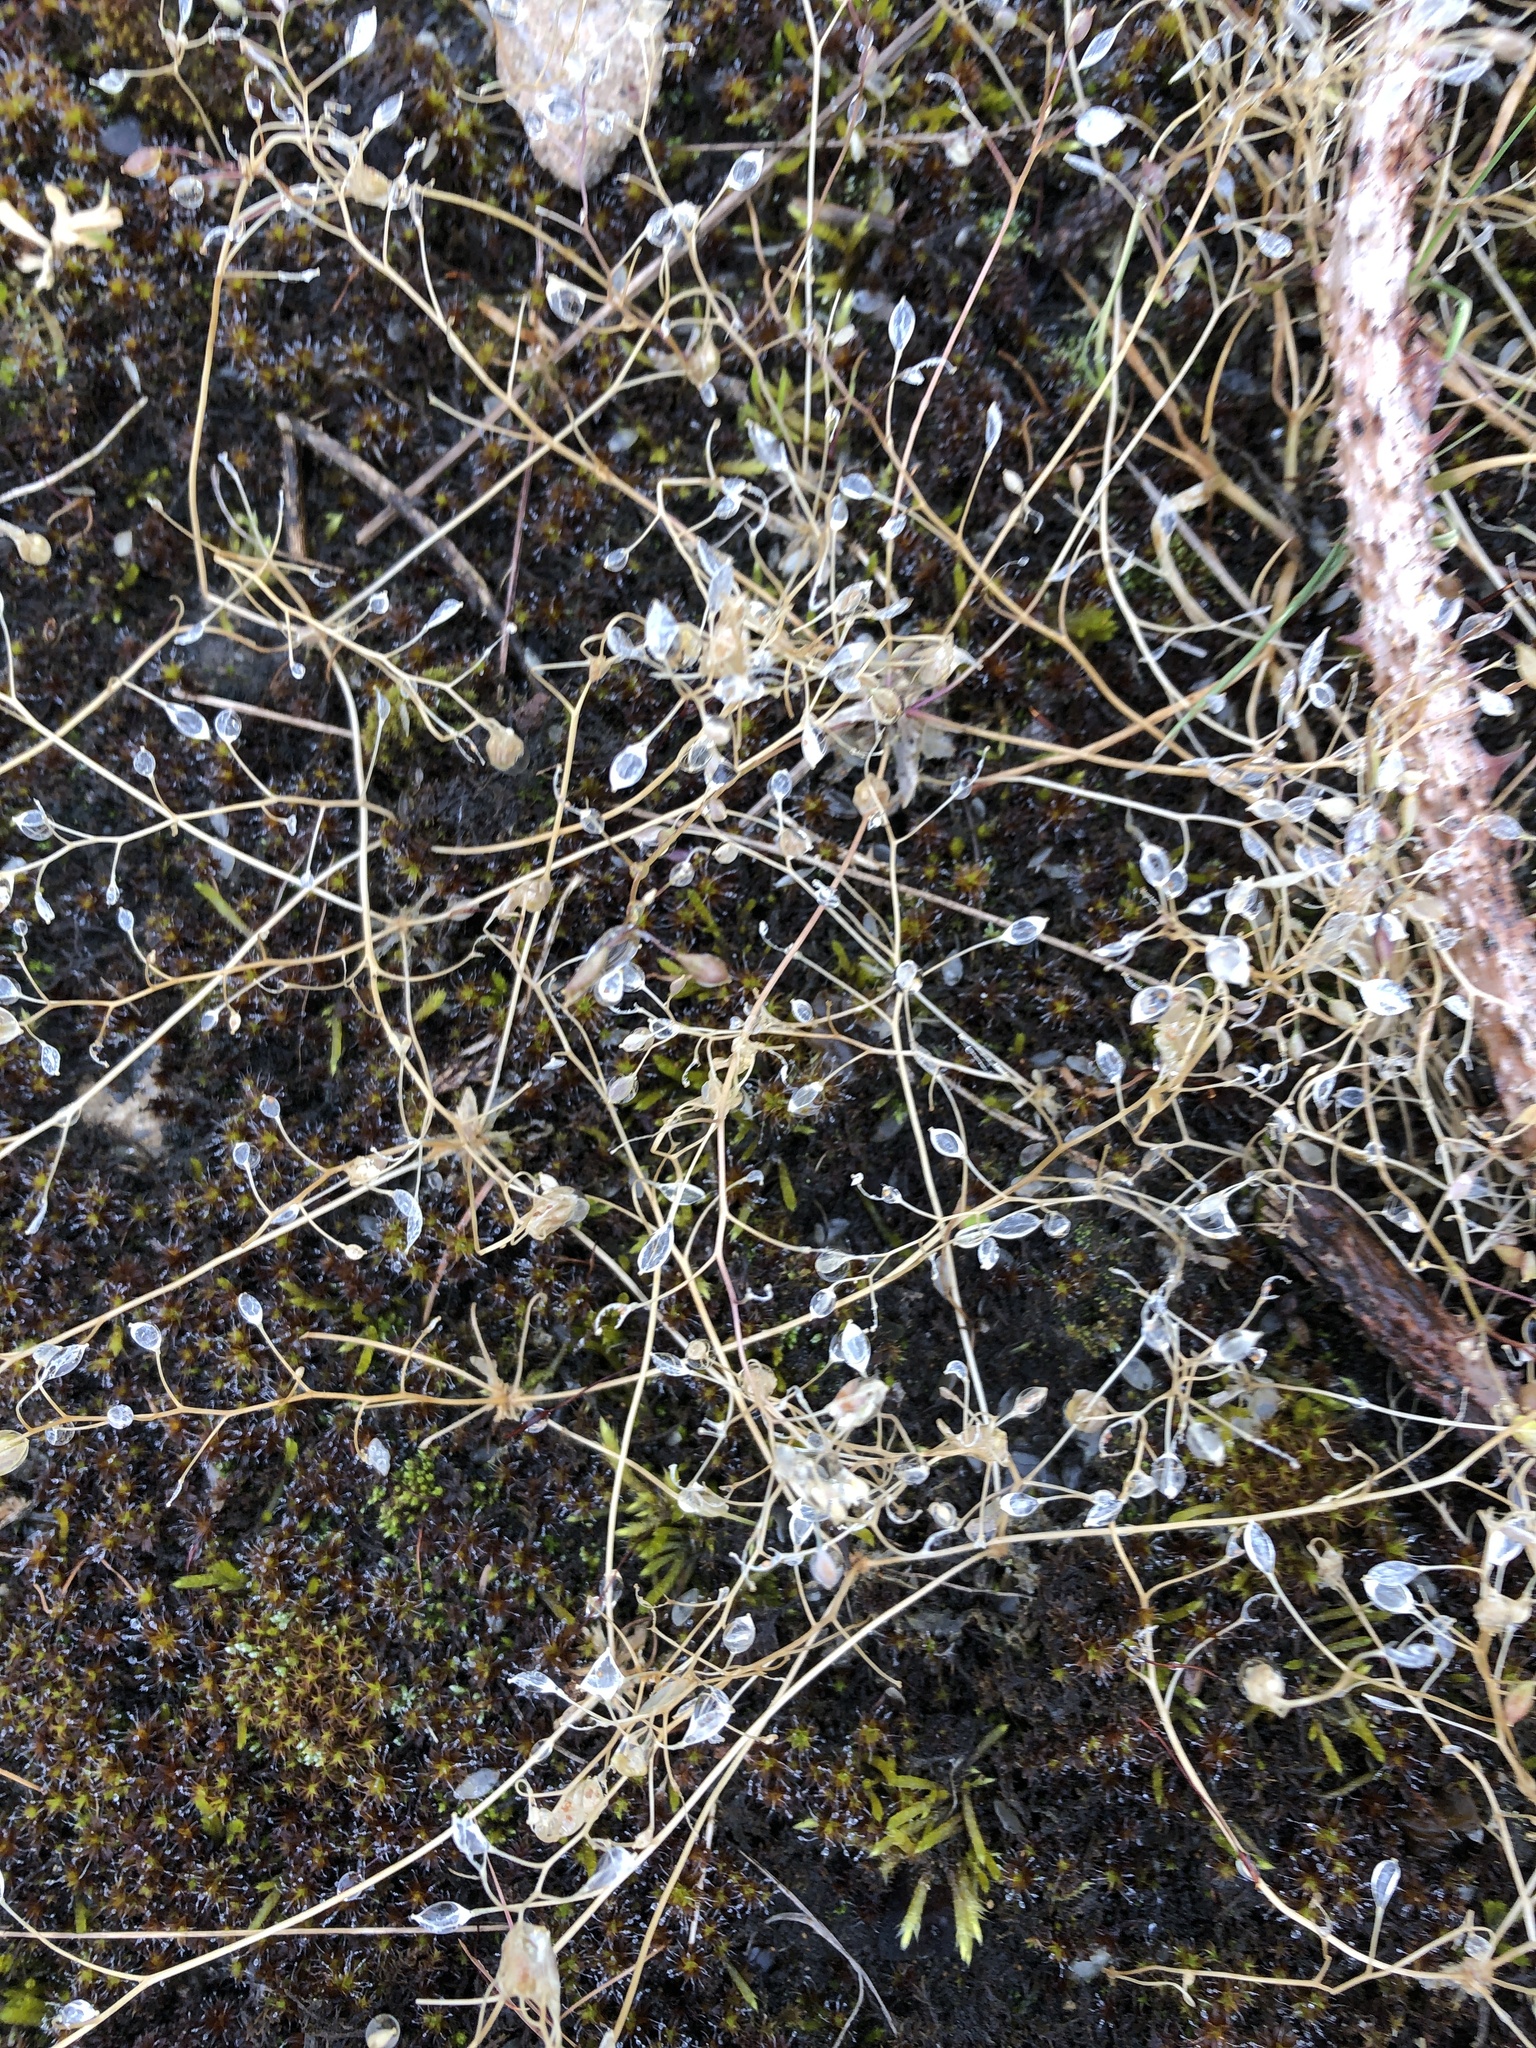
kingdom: Plantae
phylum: Tracheophyta
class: Magnoliopsida
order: Brassicales
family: Brassicaceae
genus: Draba
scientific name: Draba verna
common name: Spring draba
